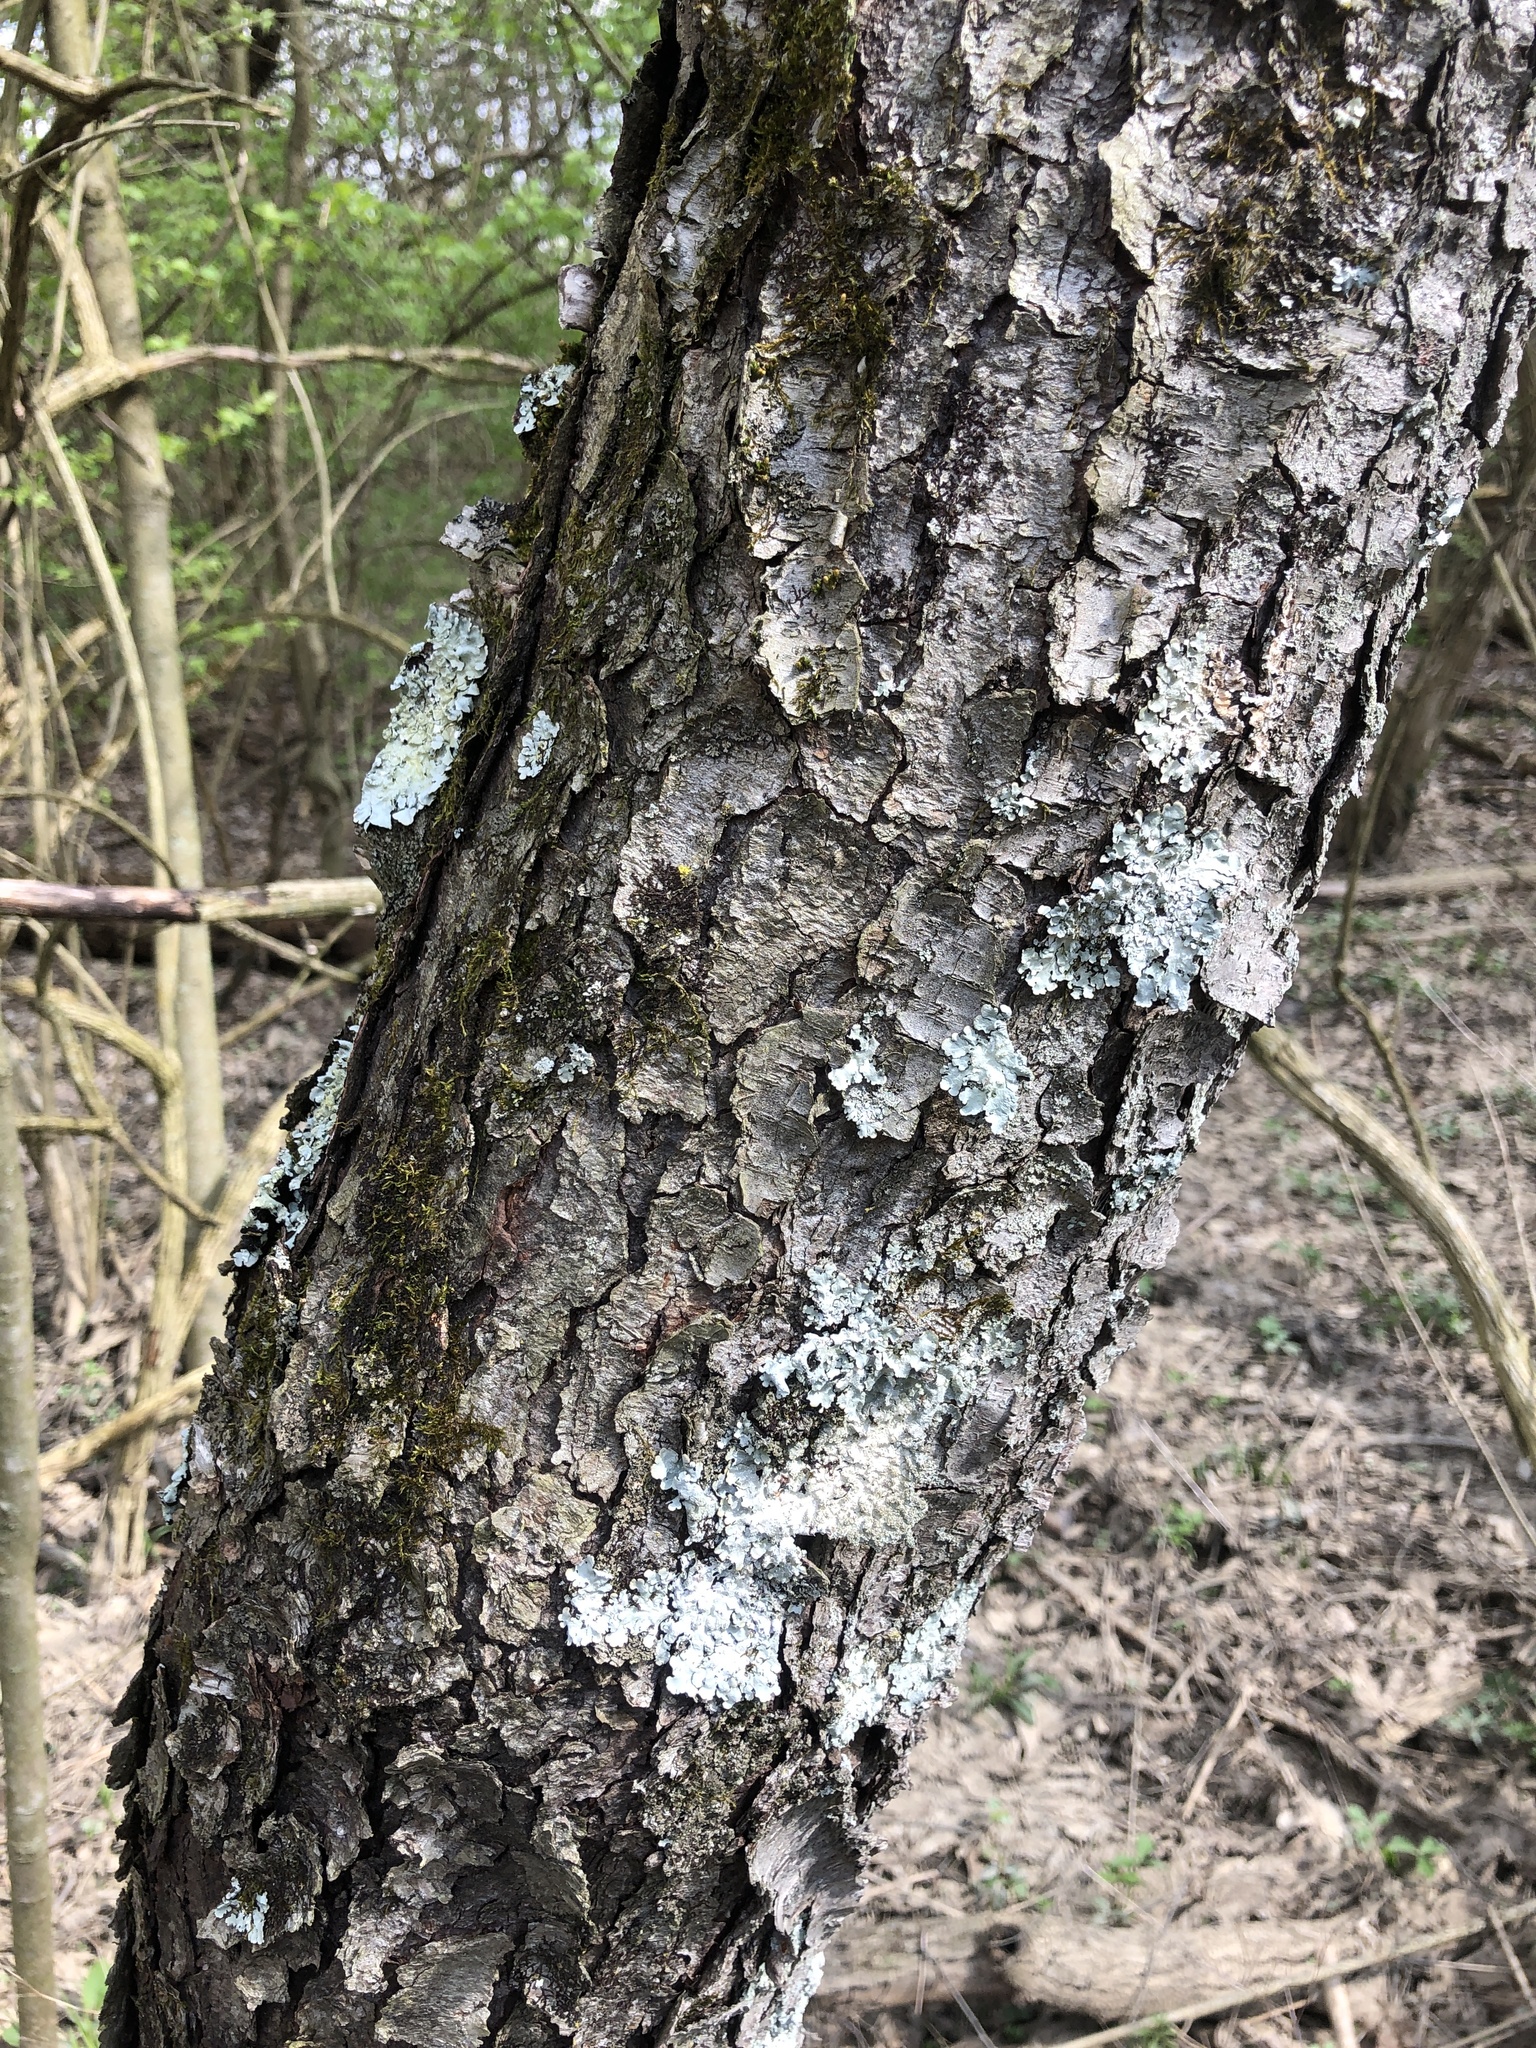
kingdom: Plantae
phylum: Tracheophyta
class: Magnoliopsida
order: Rosales
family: Rosaceae
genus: Prunus
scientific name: Prunus serotina
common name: Black cherry
